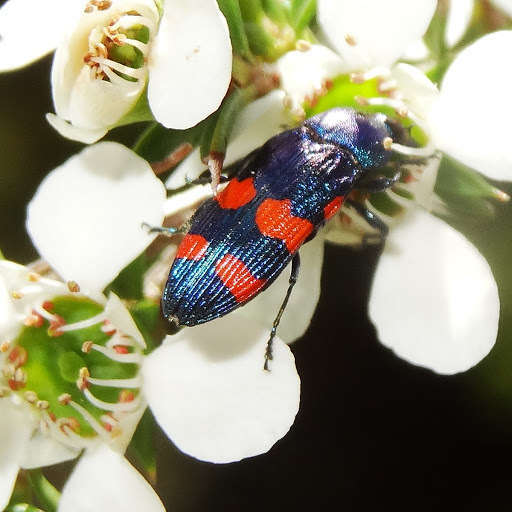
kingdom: Animalia
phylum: Arthropoda
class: Insecta
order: Coleoptera
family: Buprestidae
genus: Castiarina
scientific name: Castiarina cruentata
